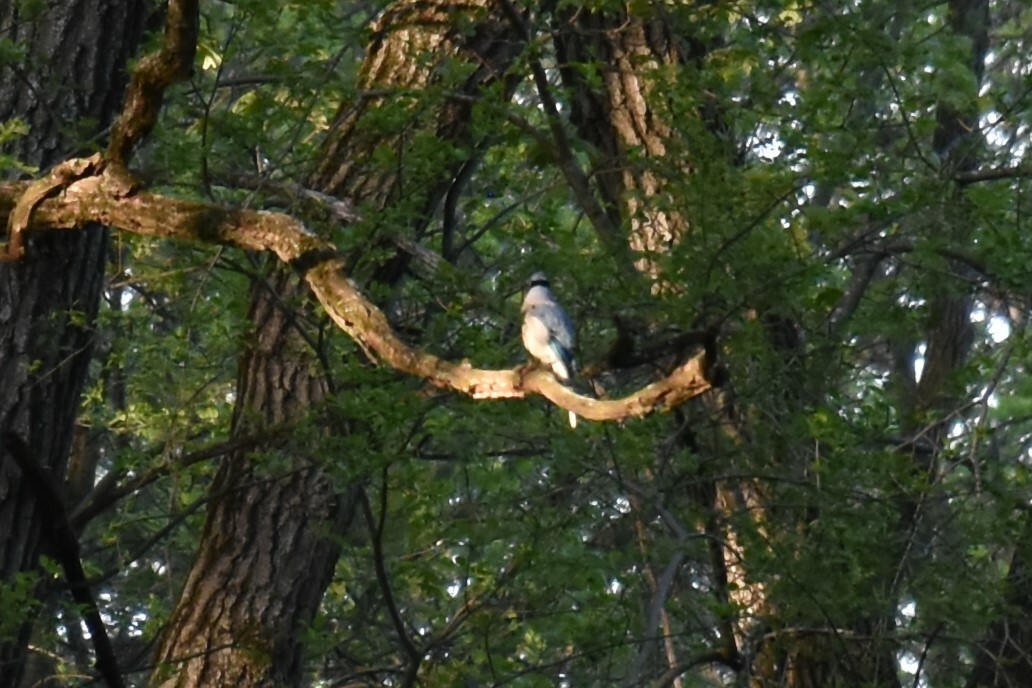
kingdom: Animalia
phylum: Chordata
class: Aves
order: Passeriformes
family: Corvidae
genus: Cyanocitta
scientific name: Cyanocitta cristata
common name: Blue jay
